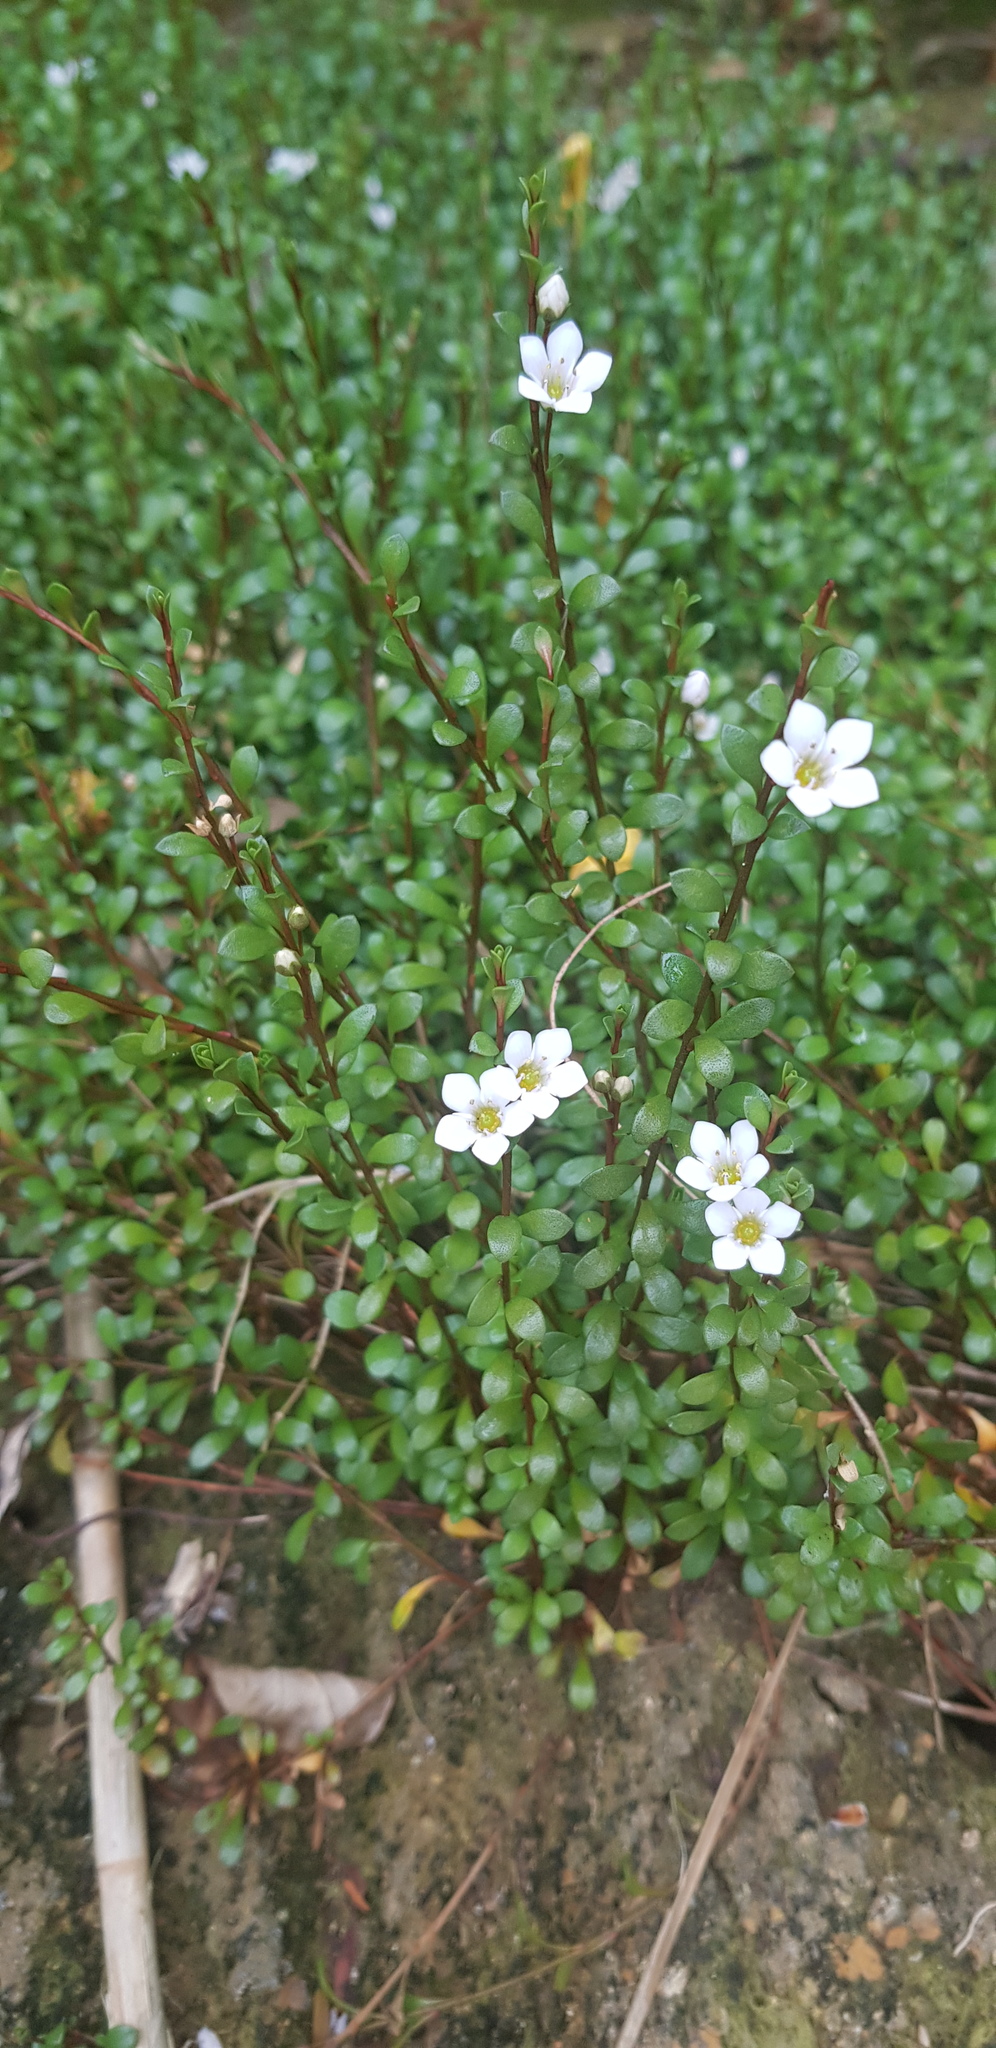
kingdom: Plantae
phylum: Tracheophyta
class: Magnoliopsida
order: Ericales
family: Primulaceae
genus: Samolus
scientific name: Samolus repens
